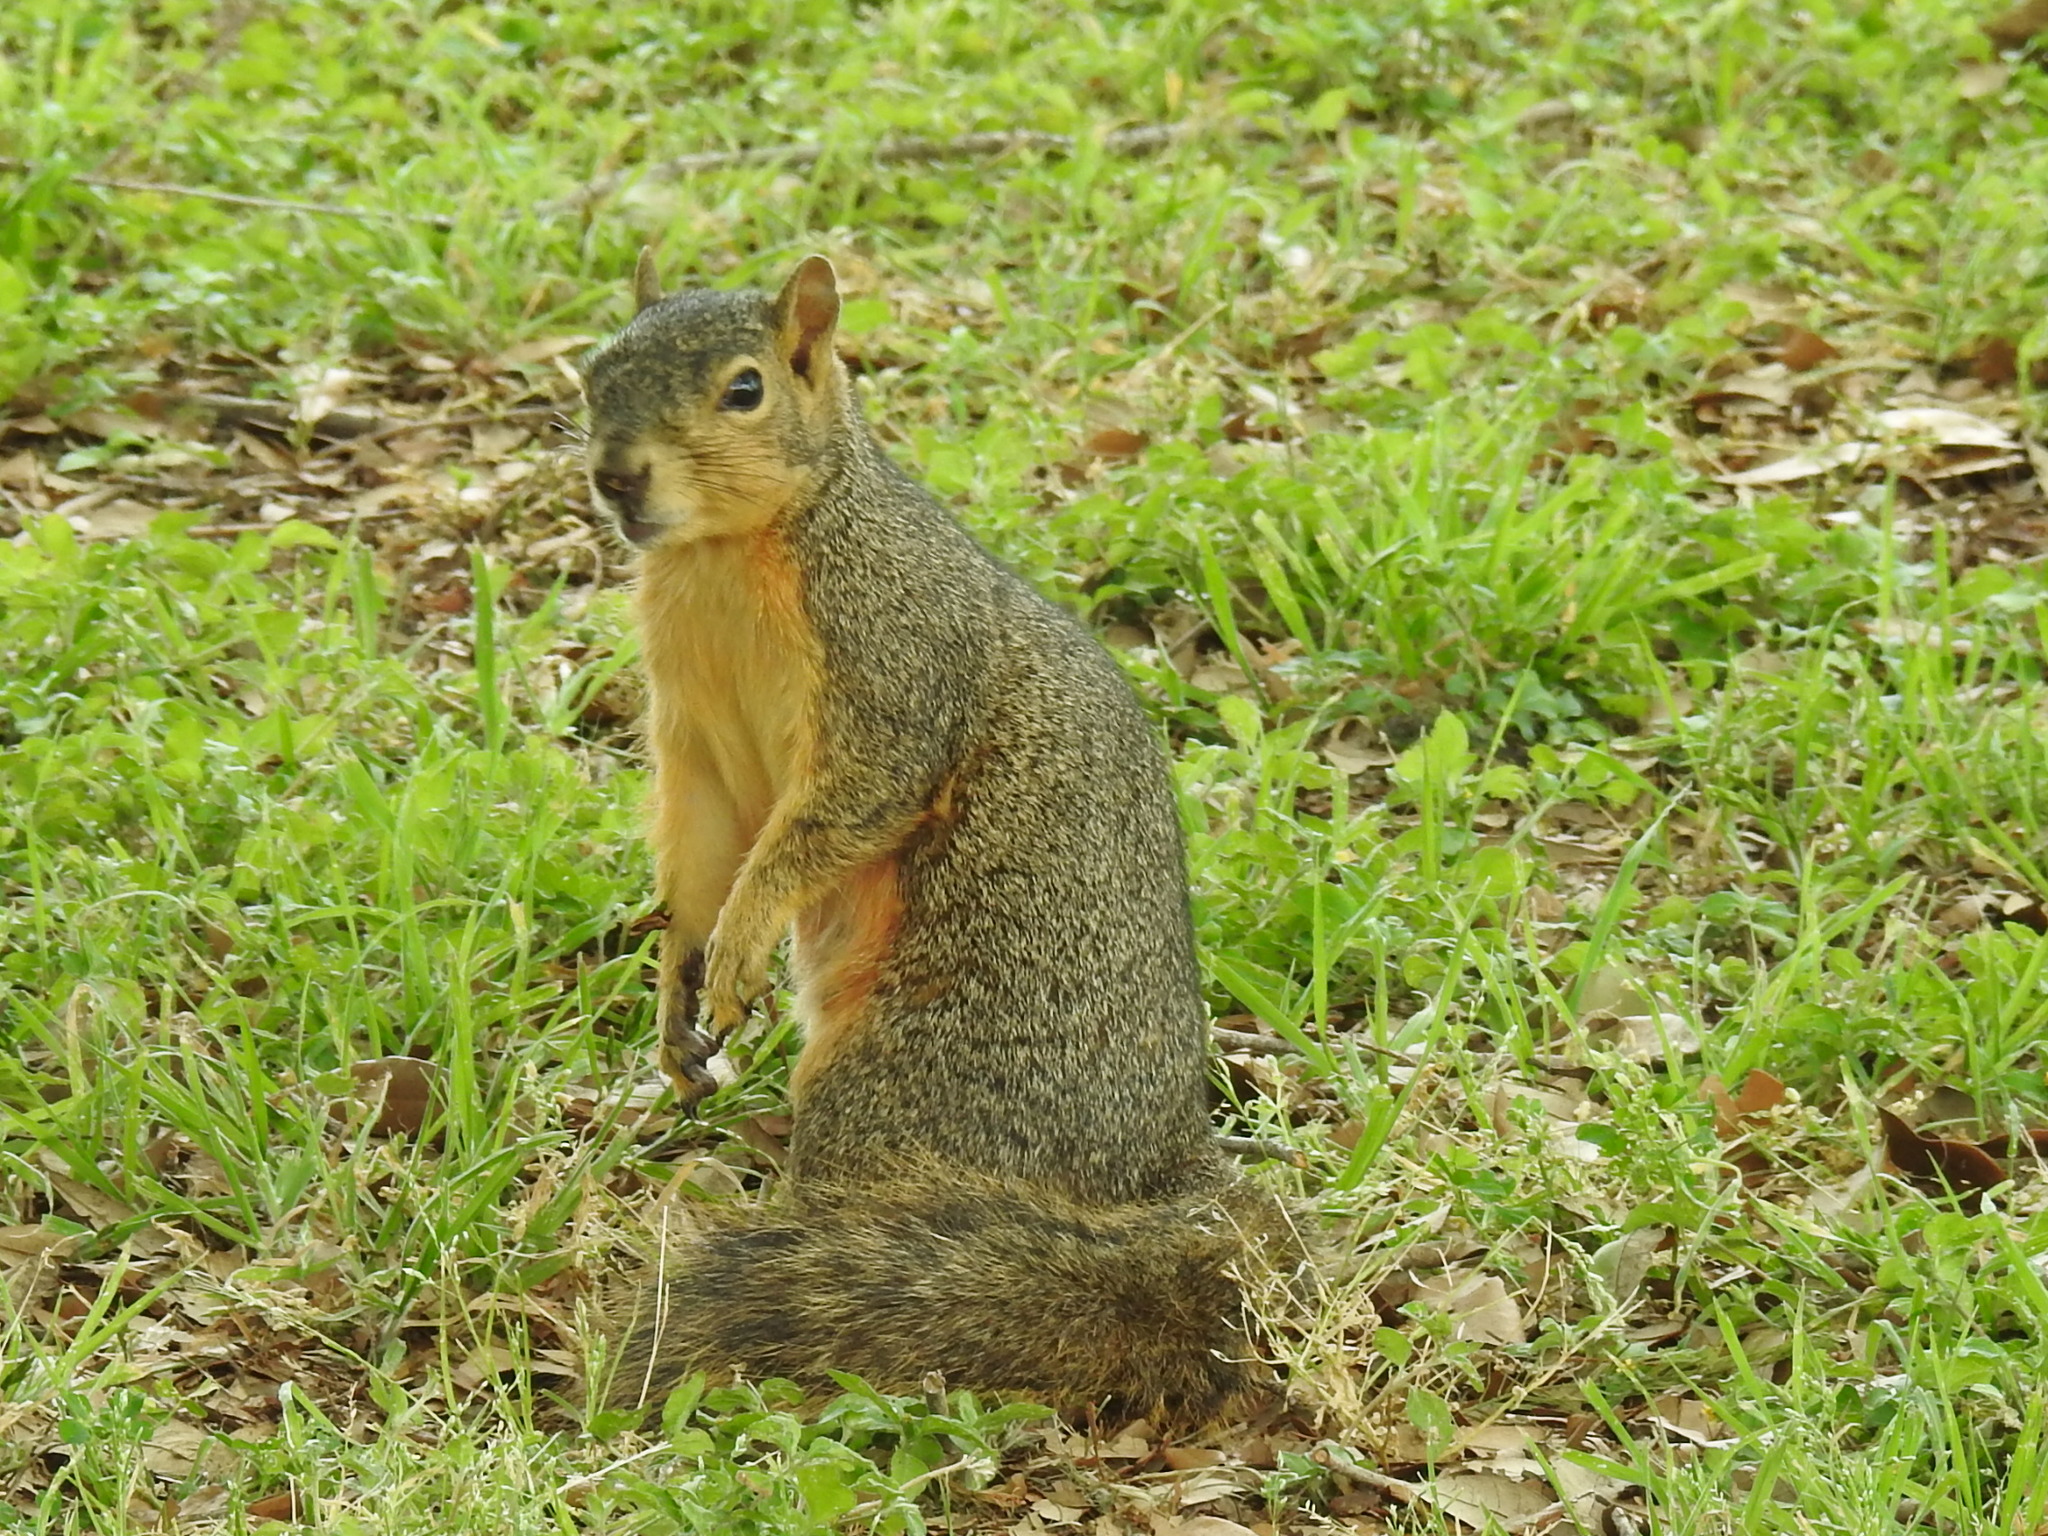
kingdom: Animalia
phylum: Chordata
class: Mammalia
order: Rodentia
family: Sciuridae
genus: Sciurus
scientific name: Sciurus niger
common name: Fox squirrel
